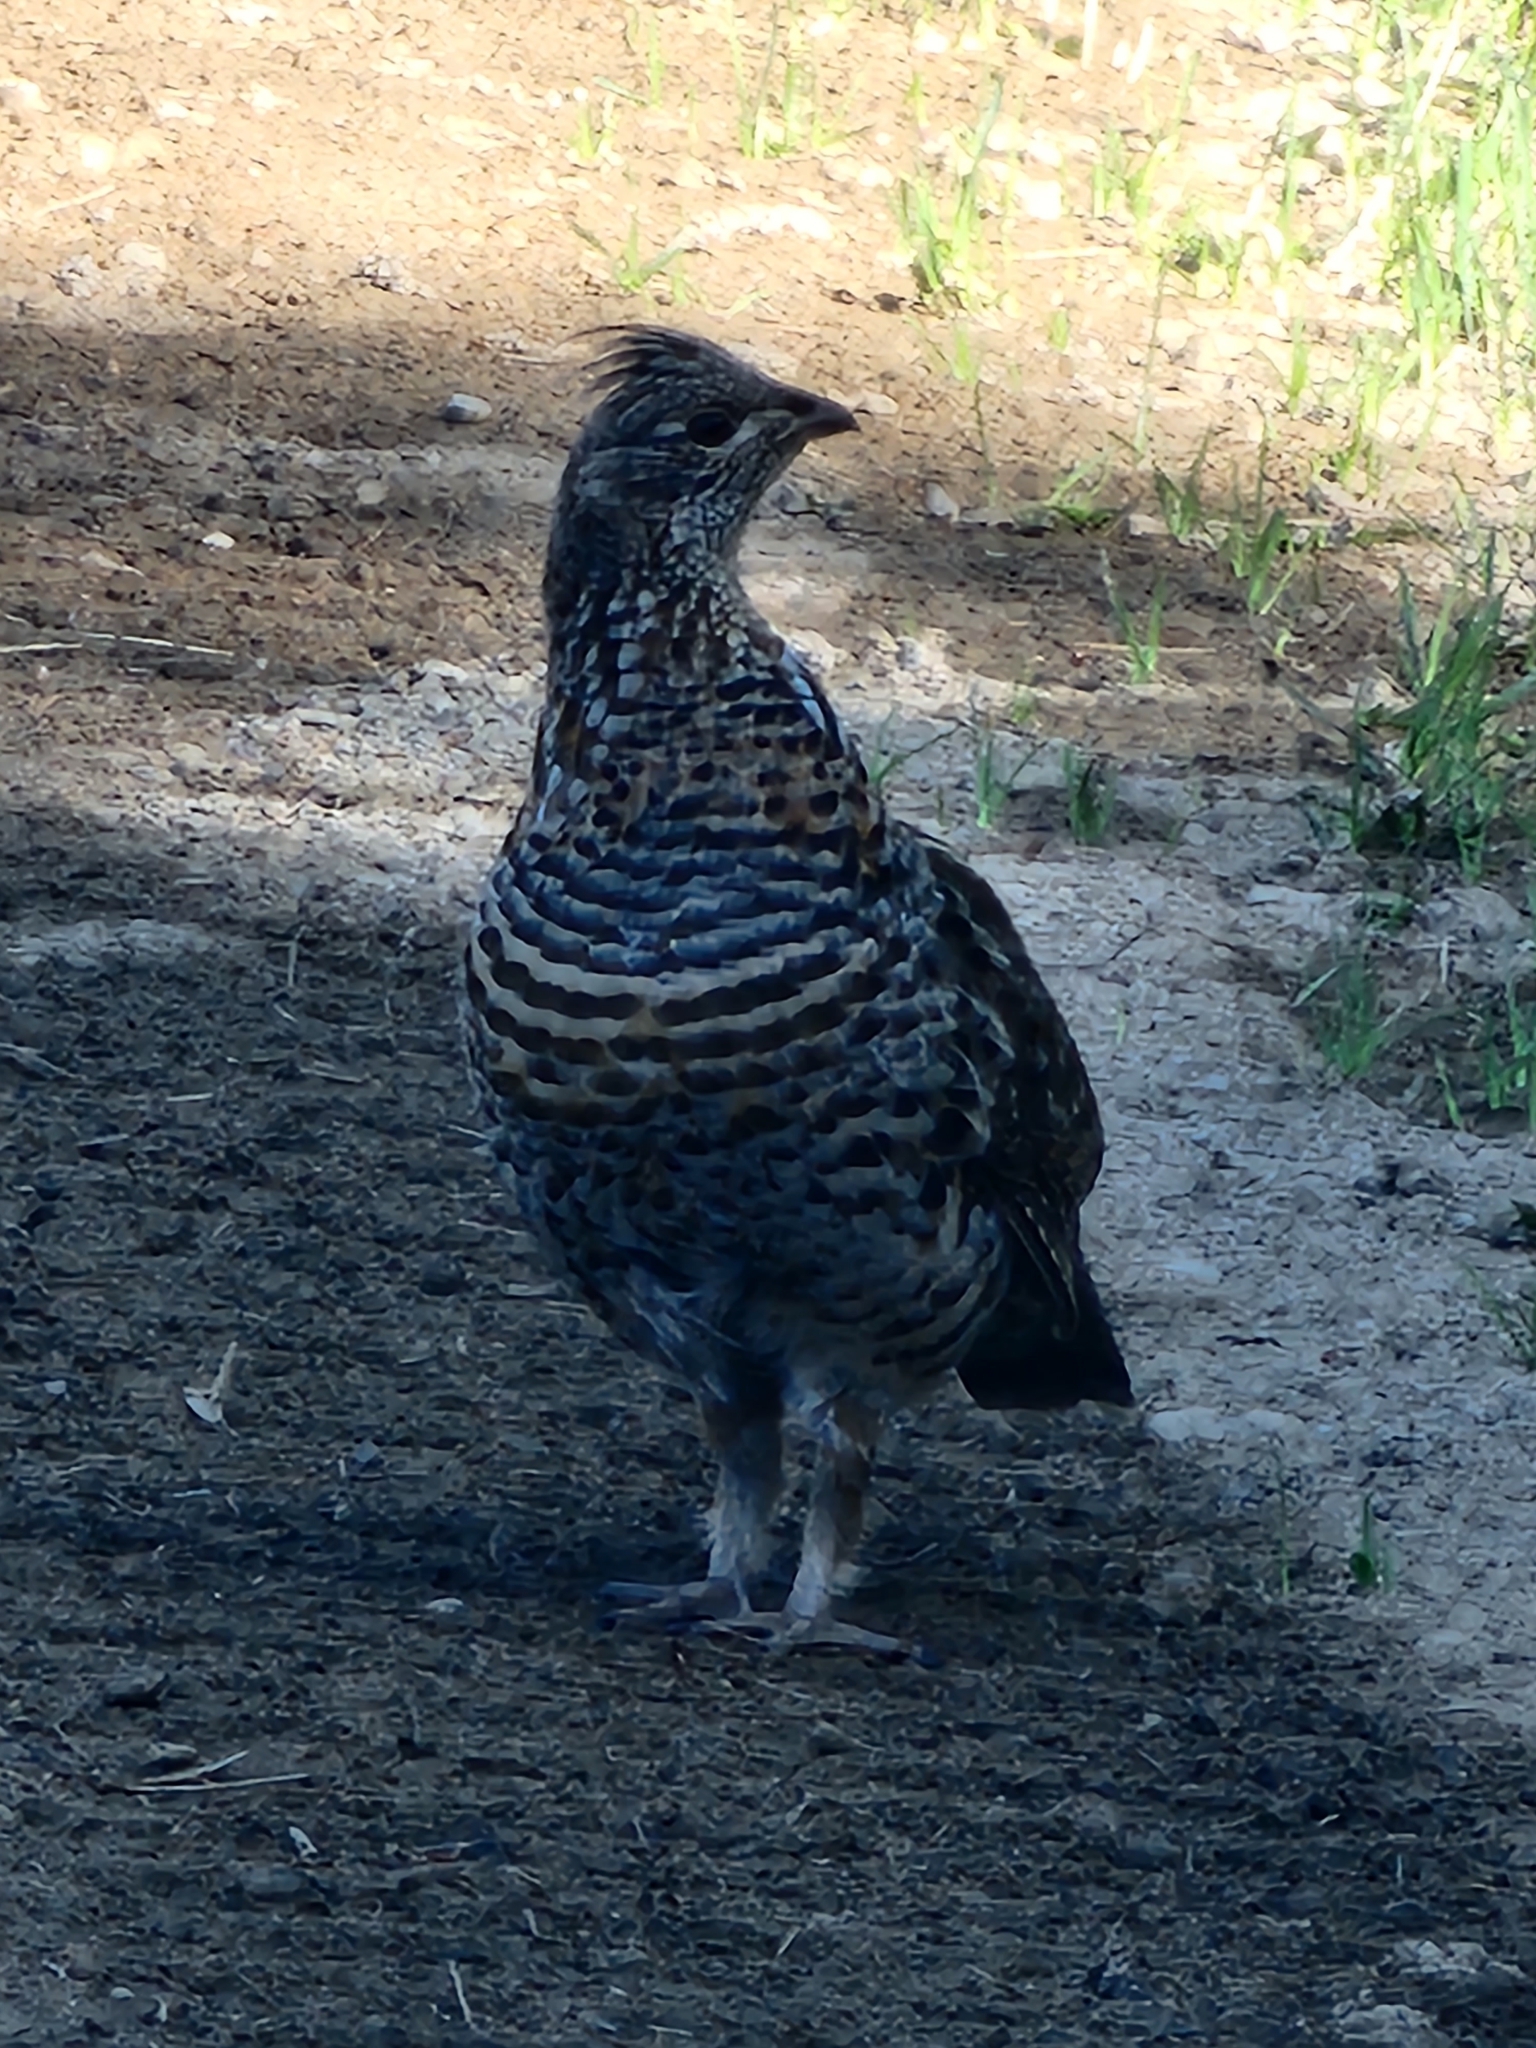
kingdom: Animalia
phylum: Chordata
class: Aves
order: Galliformes
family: Phasianidae
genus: Bonasa
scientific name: Bonasa umbellus
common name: Ruffed grouse
